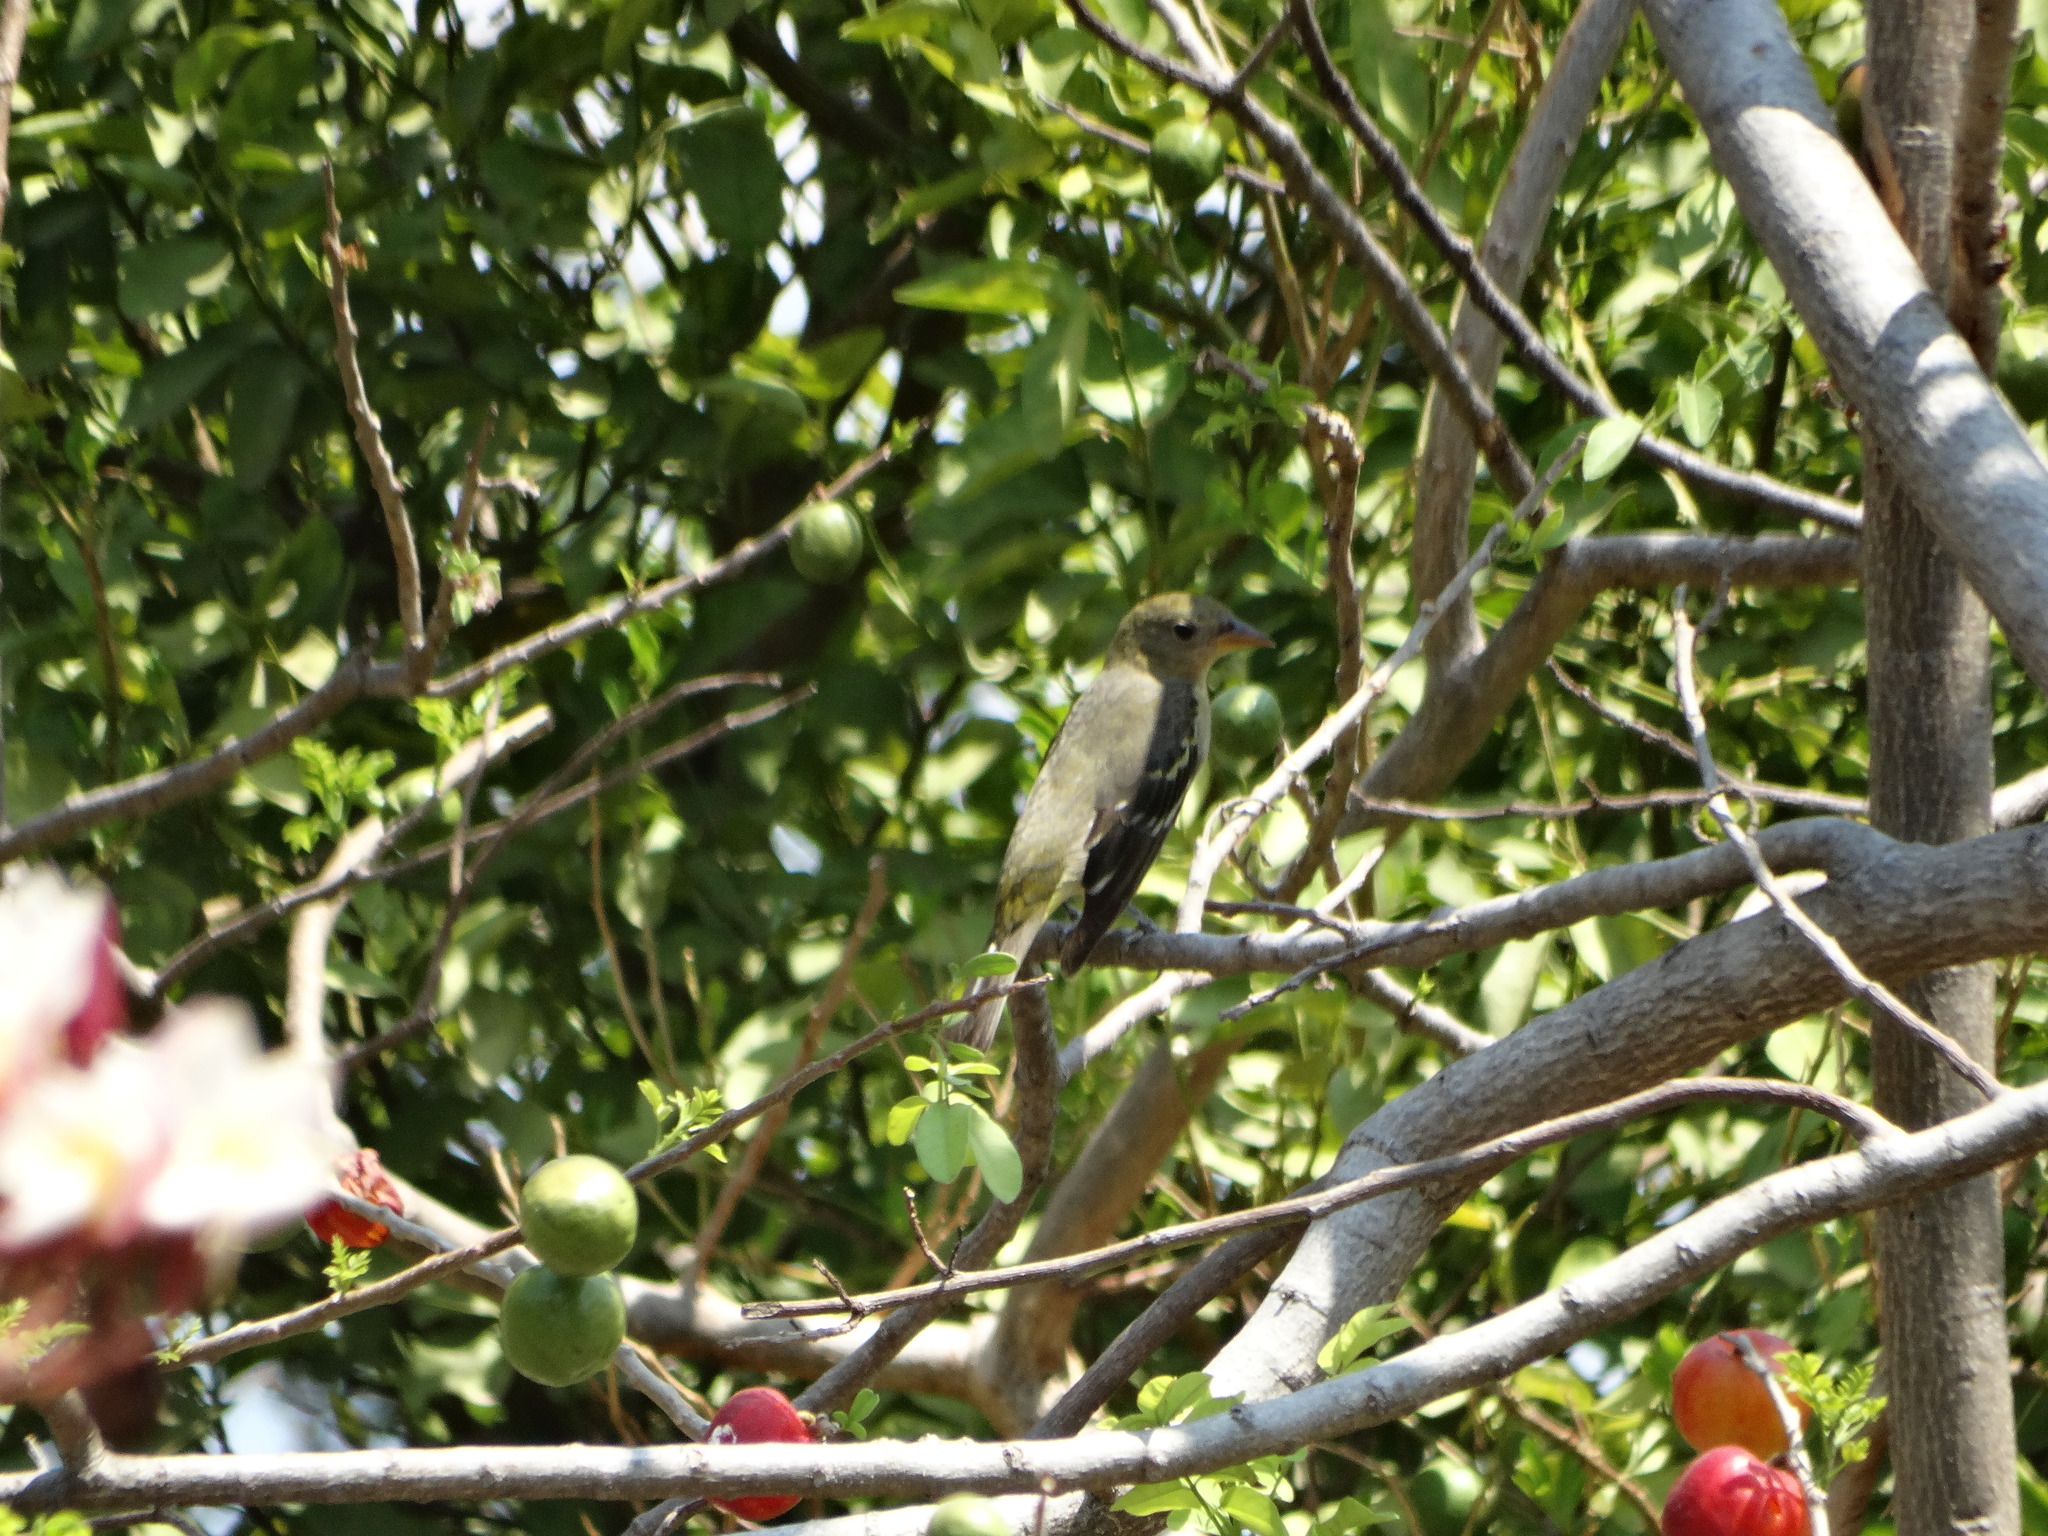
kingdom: Animalia
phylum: Chordata
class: Aves
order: Passeriformes
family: Cardinalidae
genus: Piranga
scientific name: Piranga ludoviciana
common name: Western tanager
